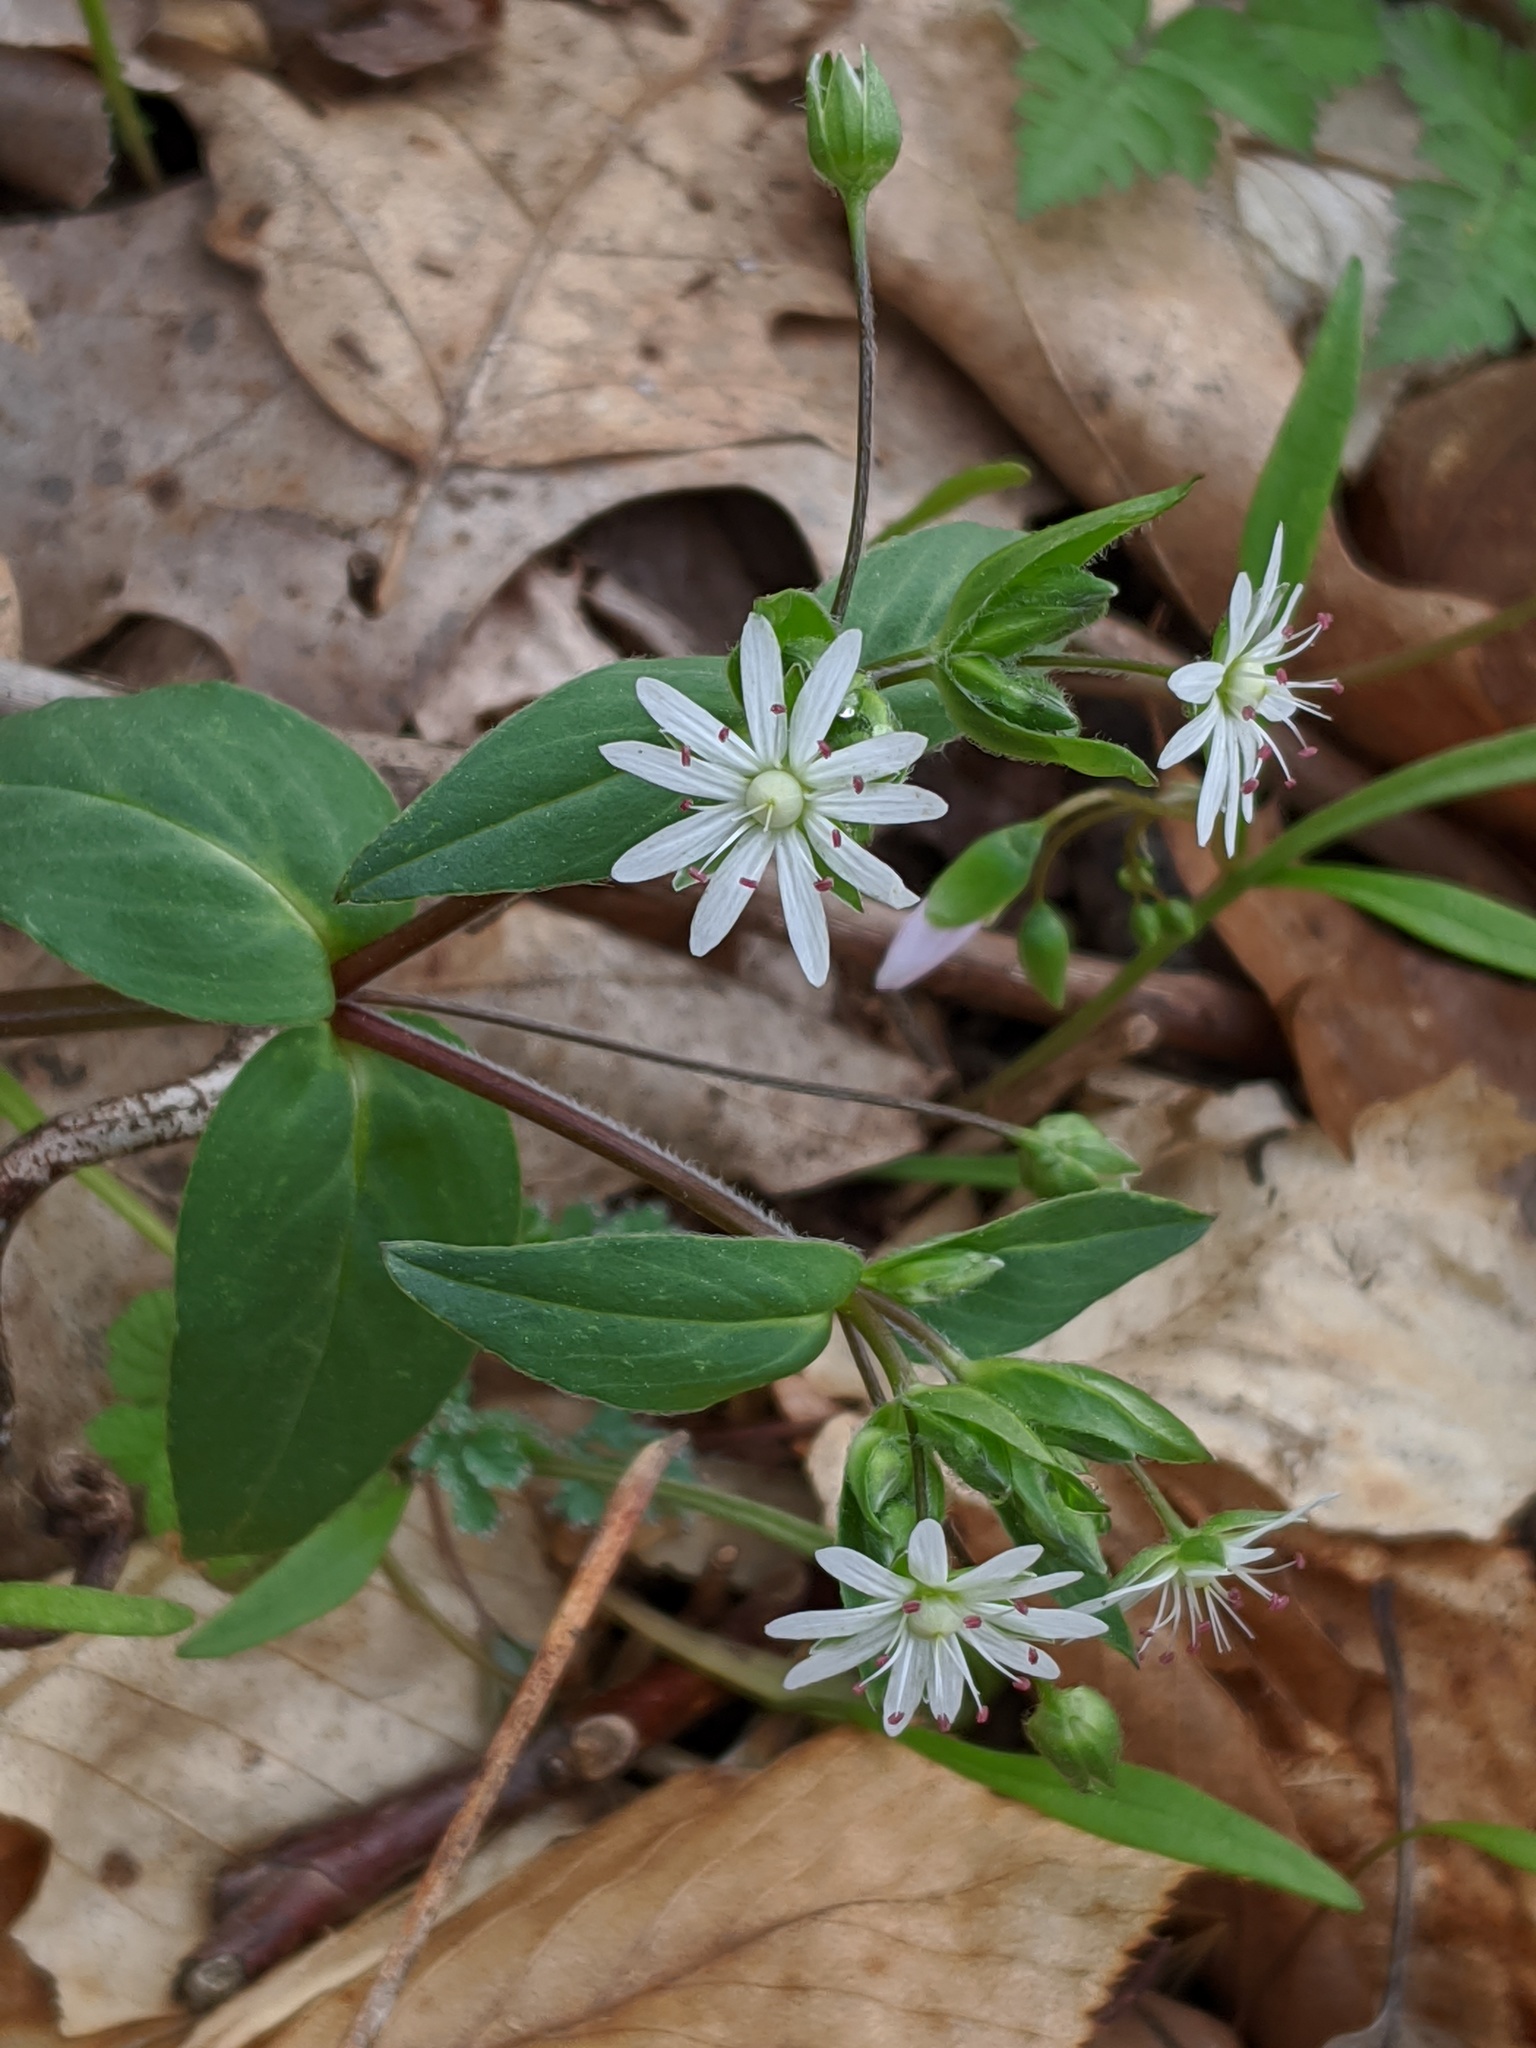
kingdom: Plantae
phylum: Tracheophyta
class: Magnoliopsida
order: Caryophyllales
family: Caryophyllaceae
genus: Stellaria
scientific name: Stellaria pubera
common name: Star chickweed
